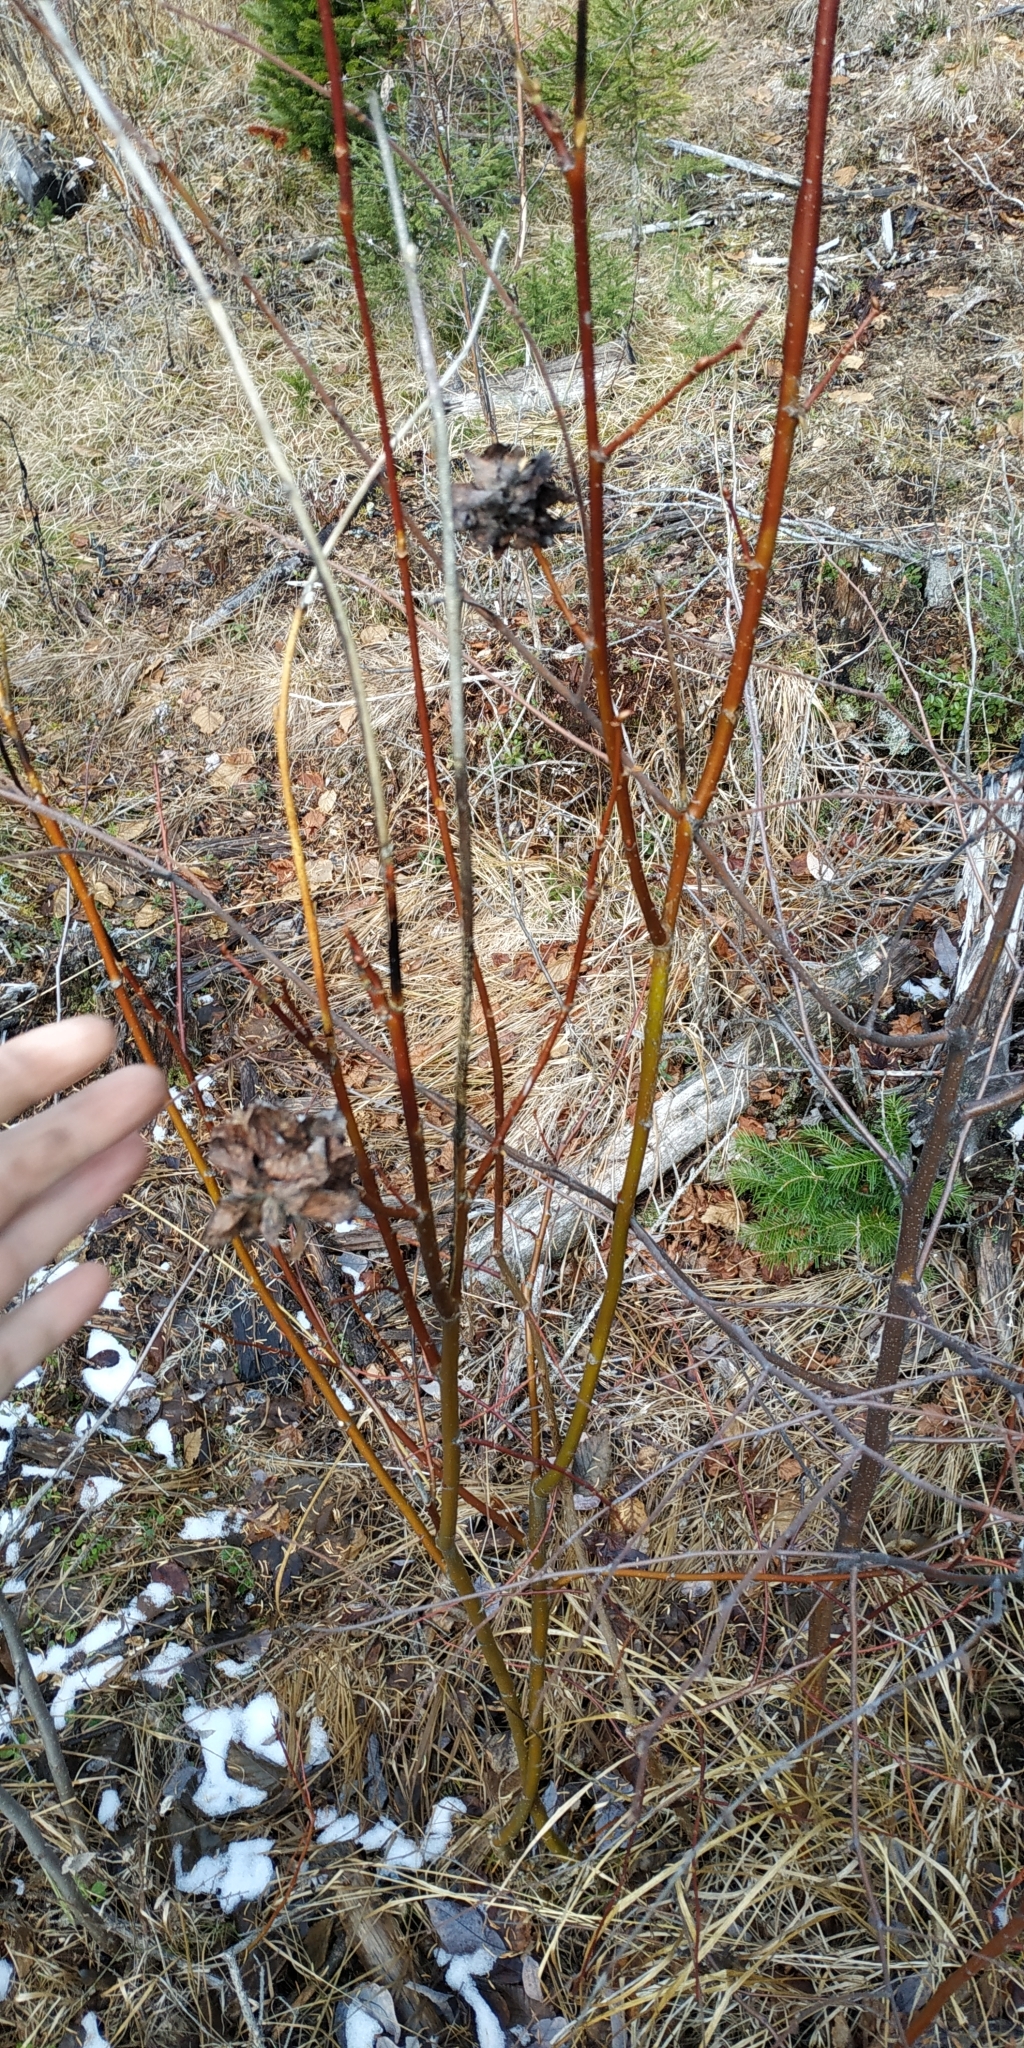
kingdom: Animalia
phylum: Arthropoda
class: Insecta
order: Diptera
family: Cecidomyiidae
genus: Rabdophaga
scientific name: Rabdophaga rosaria
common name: Willow rose gall midge
